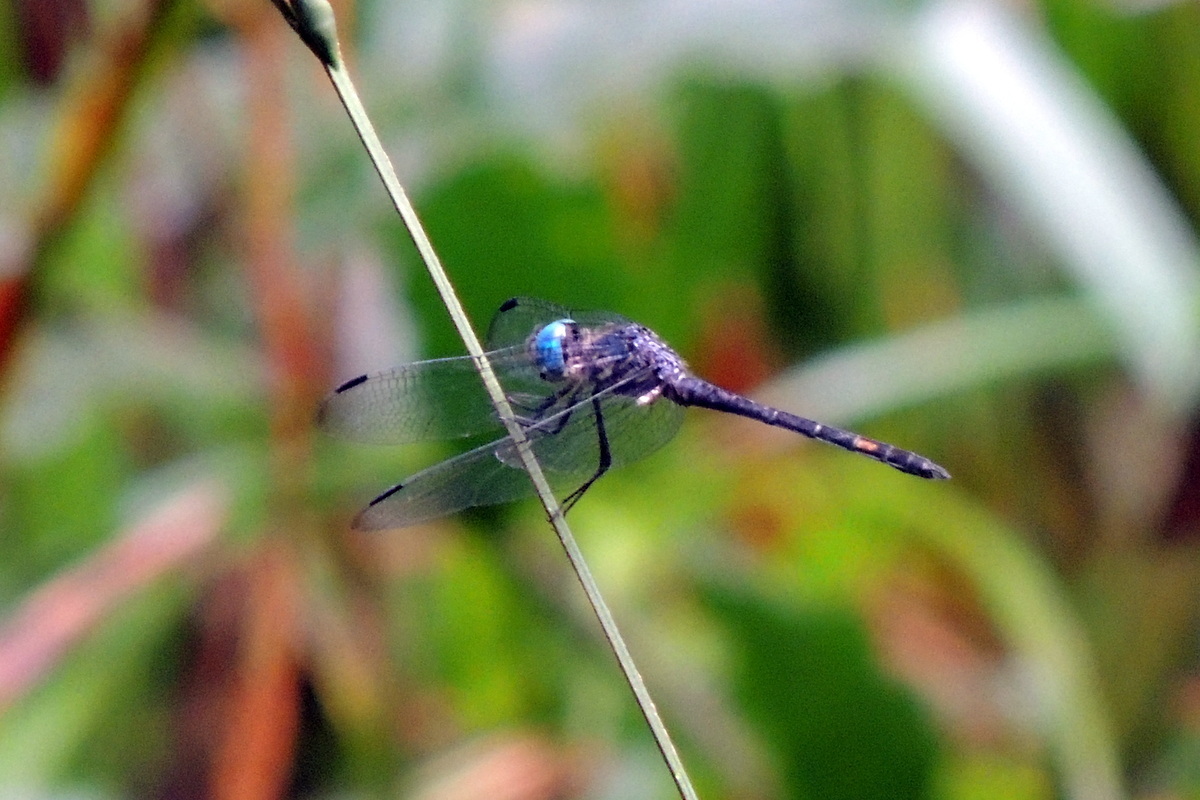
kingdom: Animalia
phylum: Arthropoda
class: Insecta
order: Odonata
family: Libellulidae
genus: Micrathyria
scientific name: Micrathyria atra
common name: Black dasher
